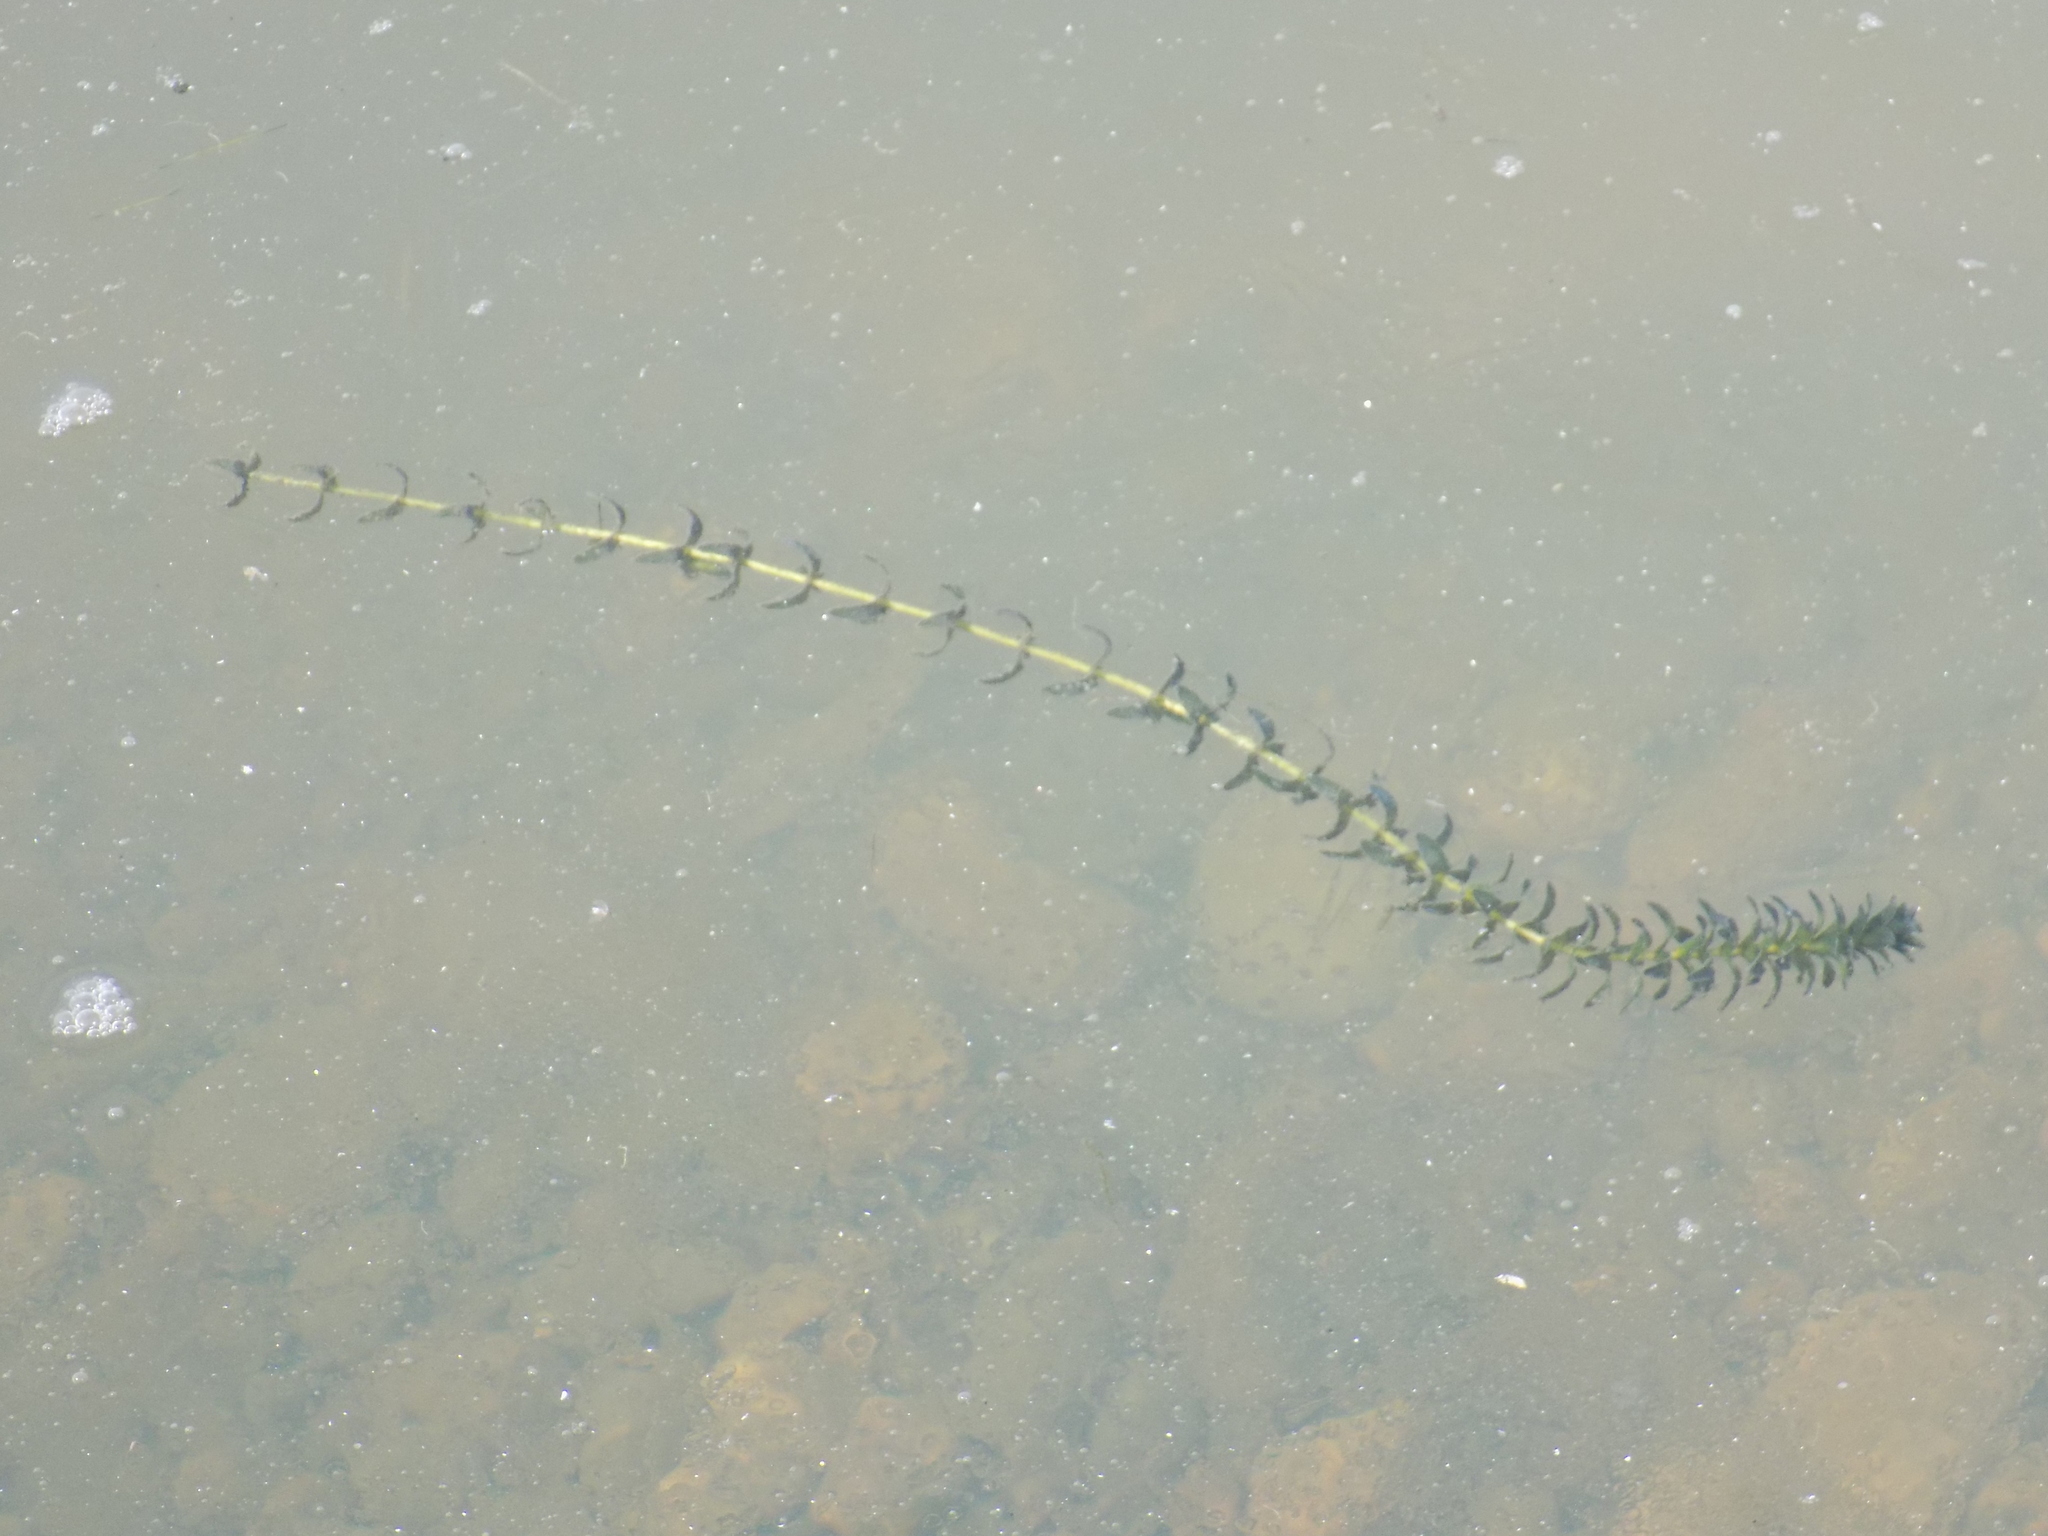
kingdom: Plantae
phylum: Tracheophyta
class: Liliopsida
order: Alismatales
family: Hydrocharitaceae
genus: Elodea
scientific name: Elodea canadensis
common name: Canadian waterweed
